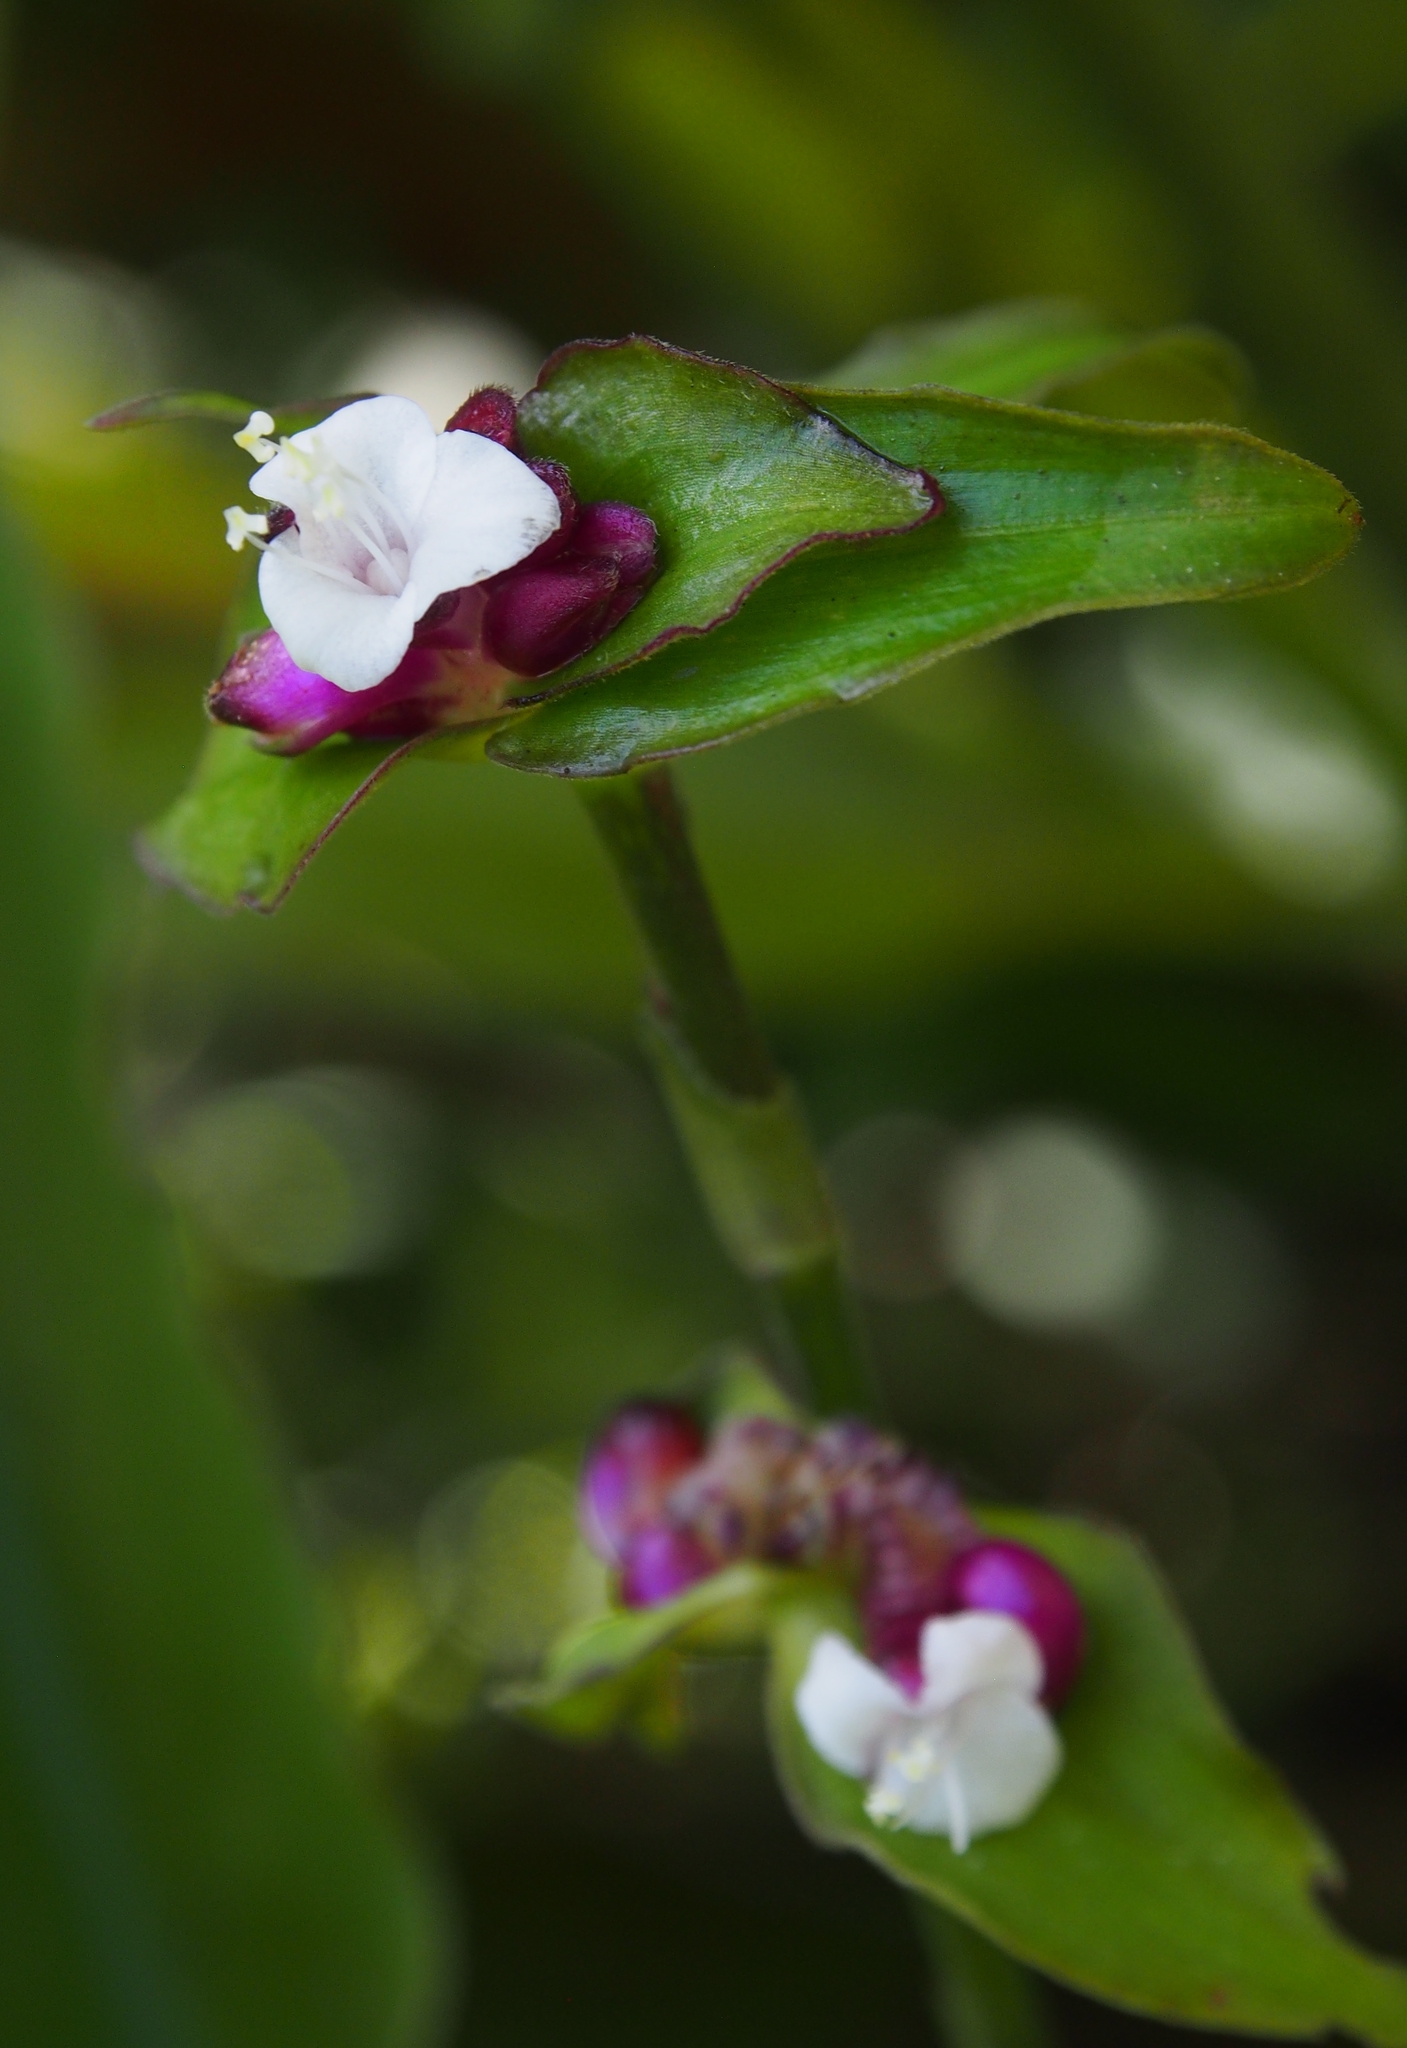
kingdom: Plantae
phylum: Tracheophyta
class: Liliopsida
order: Commelinales
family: Commelinaceae
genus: Tradescantia
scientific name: Tradescantia zanonia
